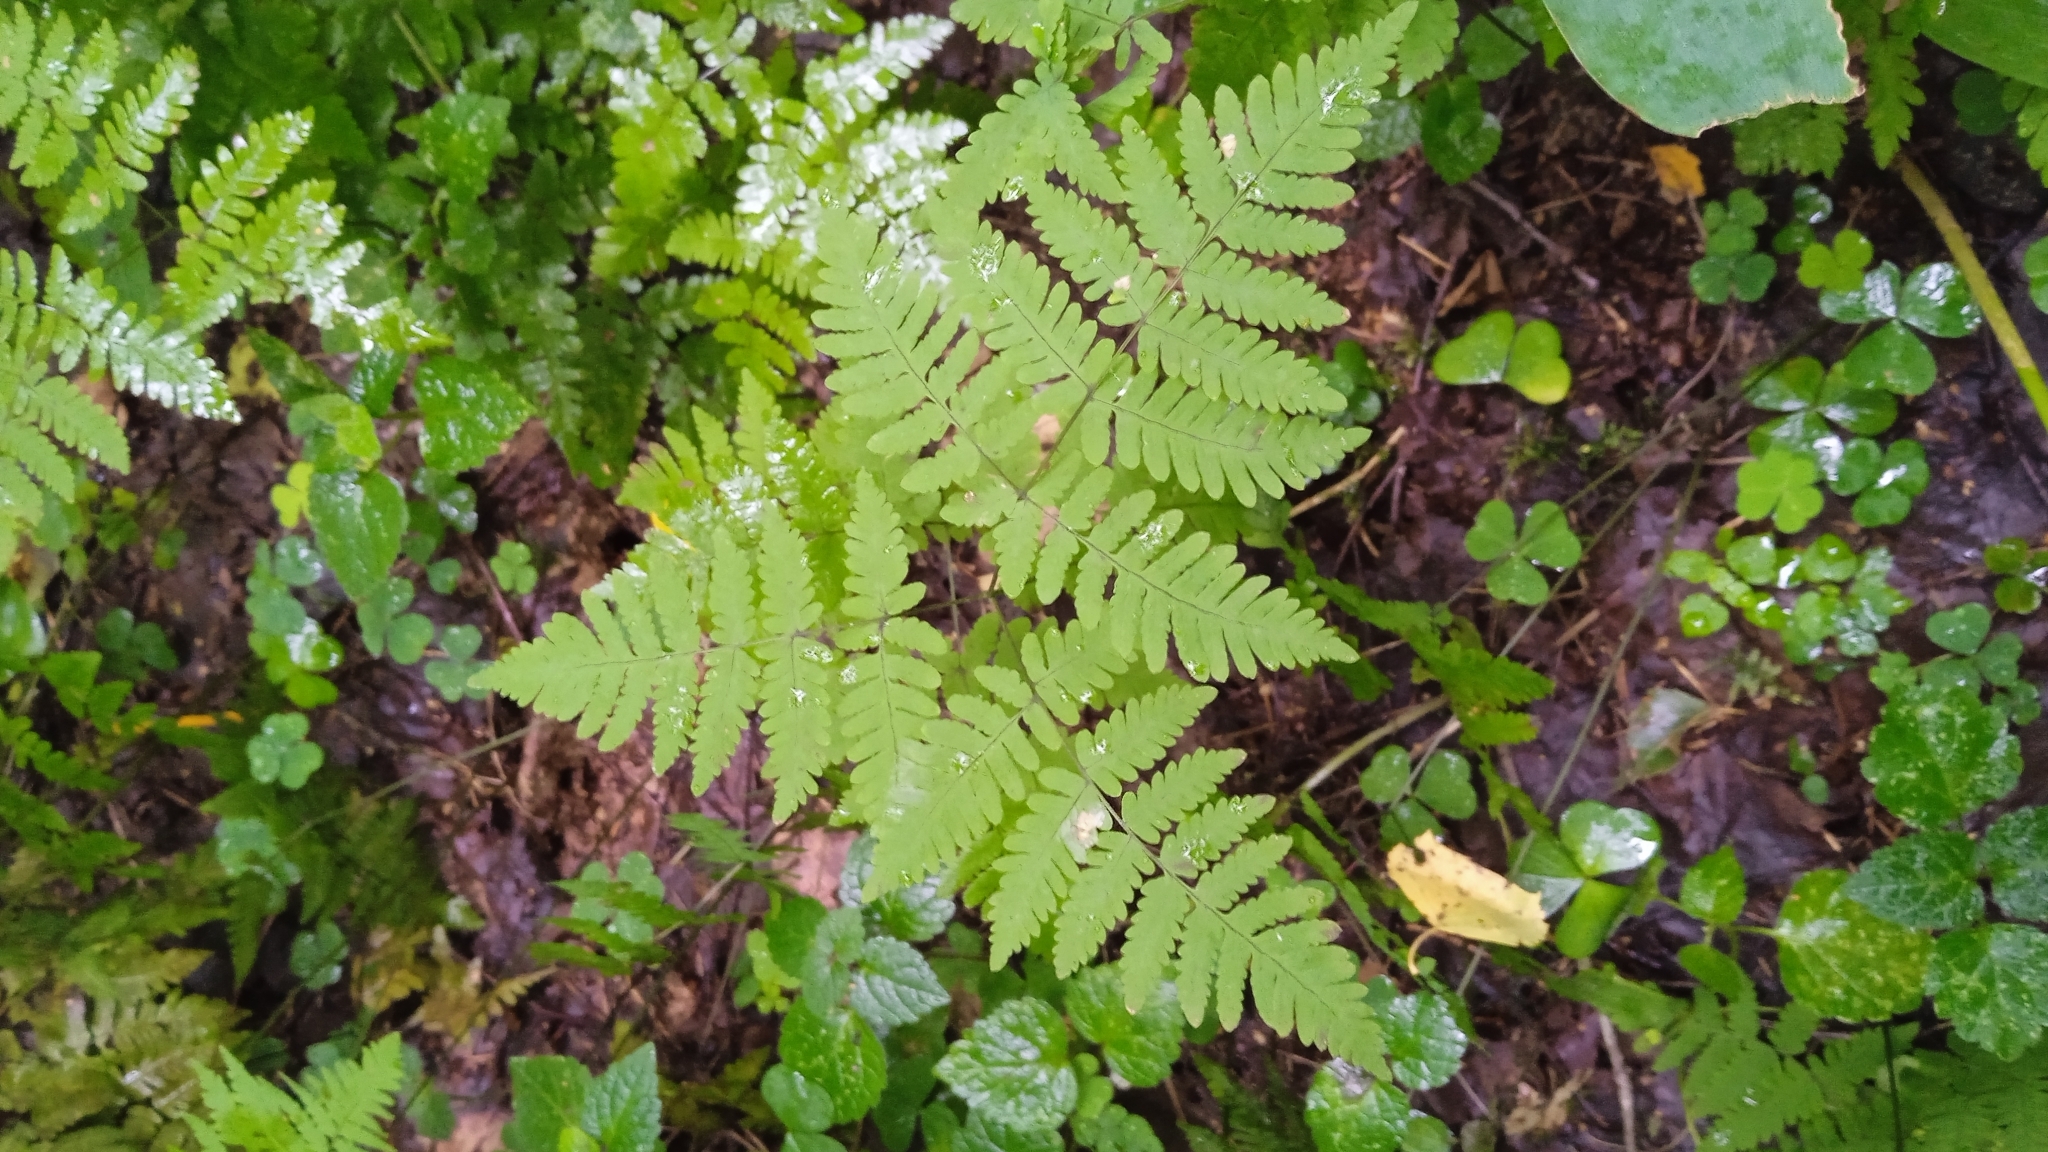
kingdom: Plantae
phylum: Tracheophyta
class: Polypodiopsida
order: Polypodiales
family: Cystopteridaceae
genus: Gymnocarpium
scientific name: Gymnocarpium dryopteris
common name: Oak fern
